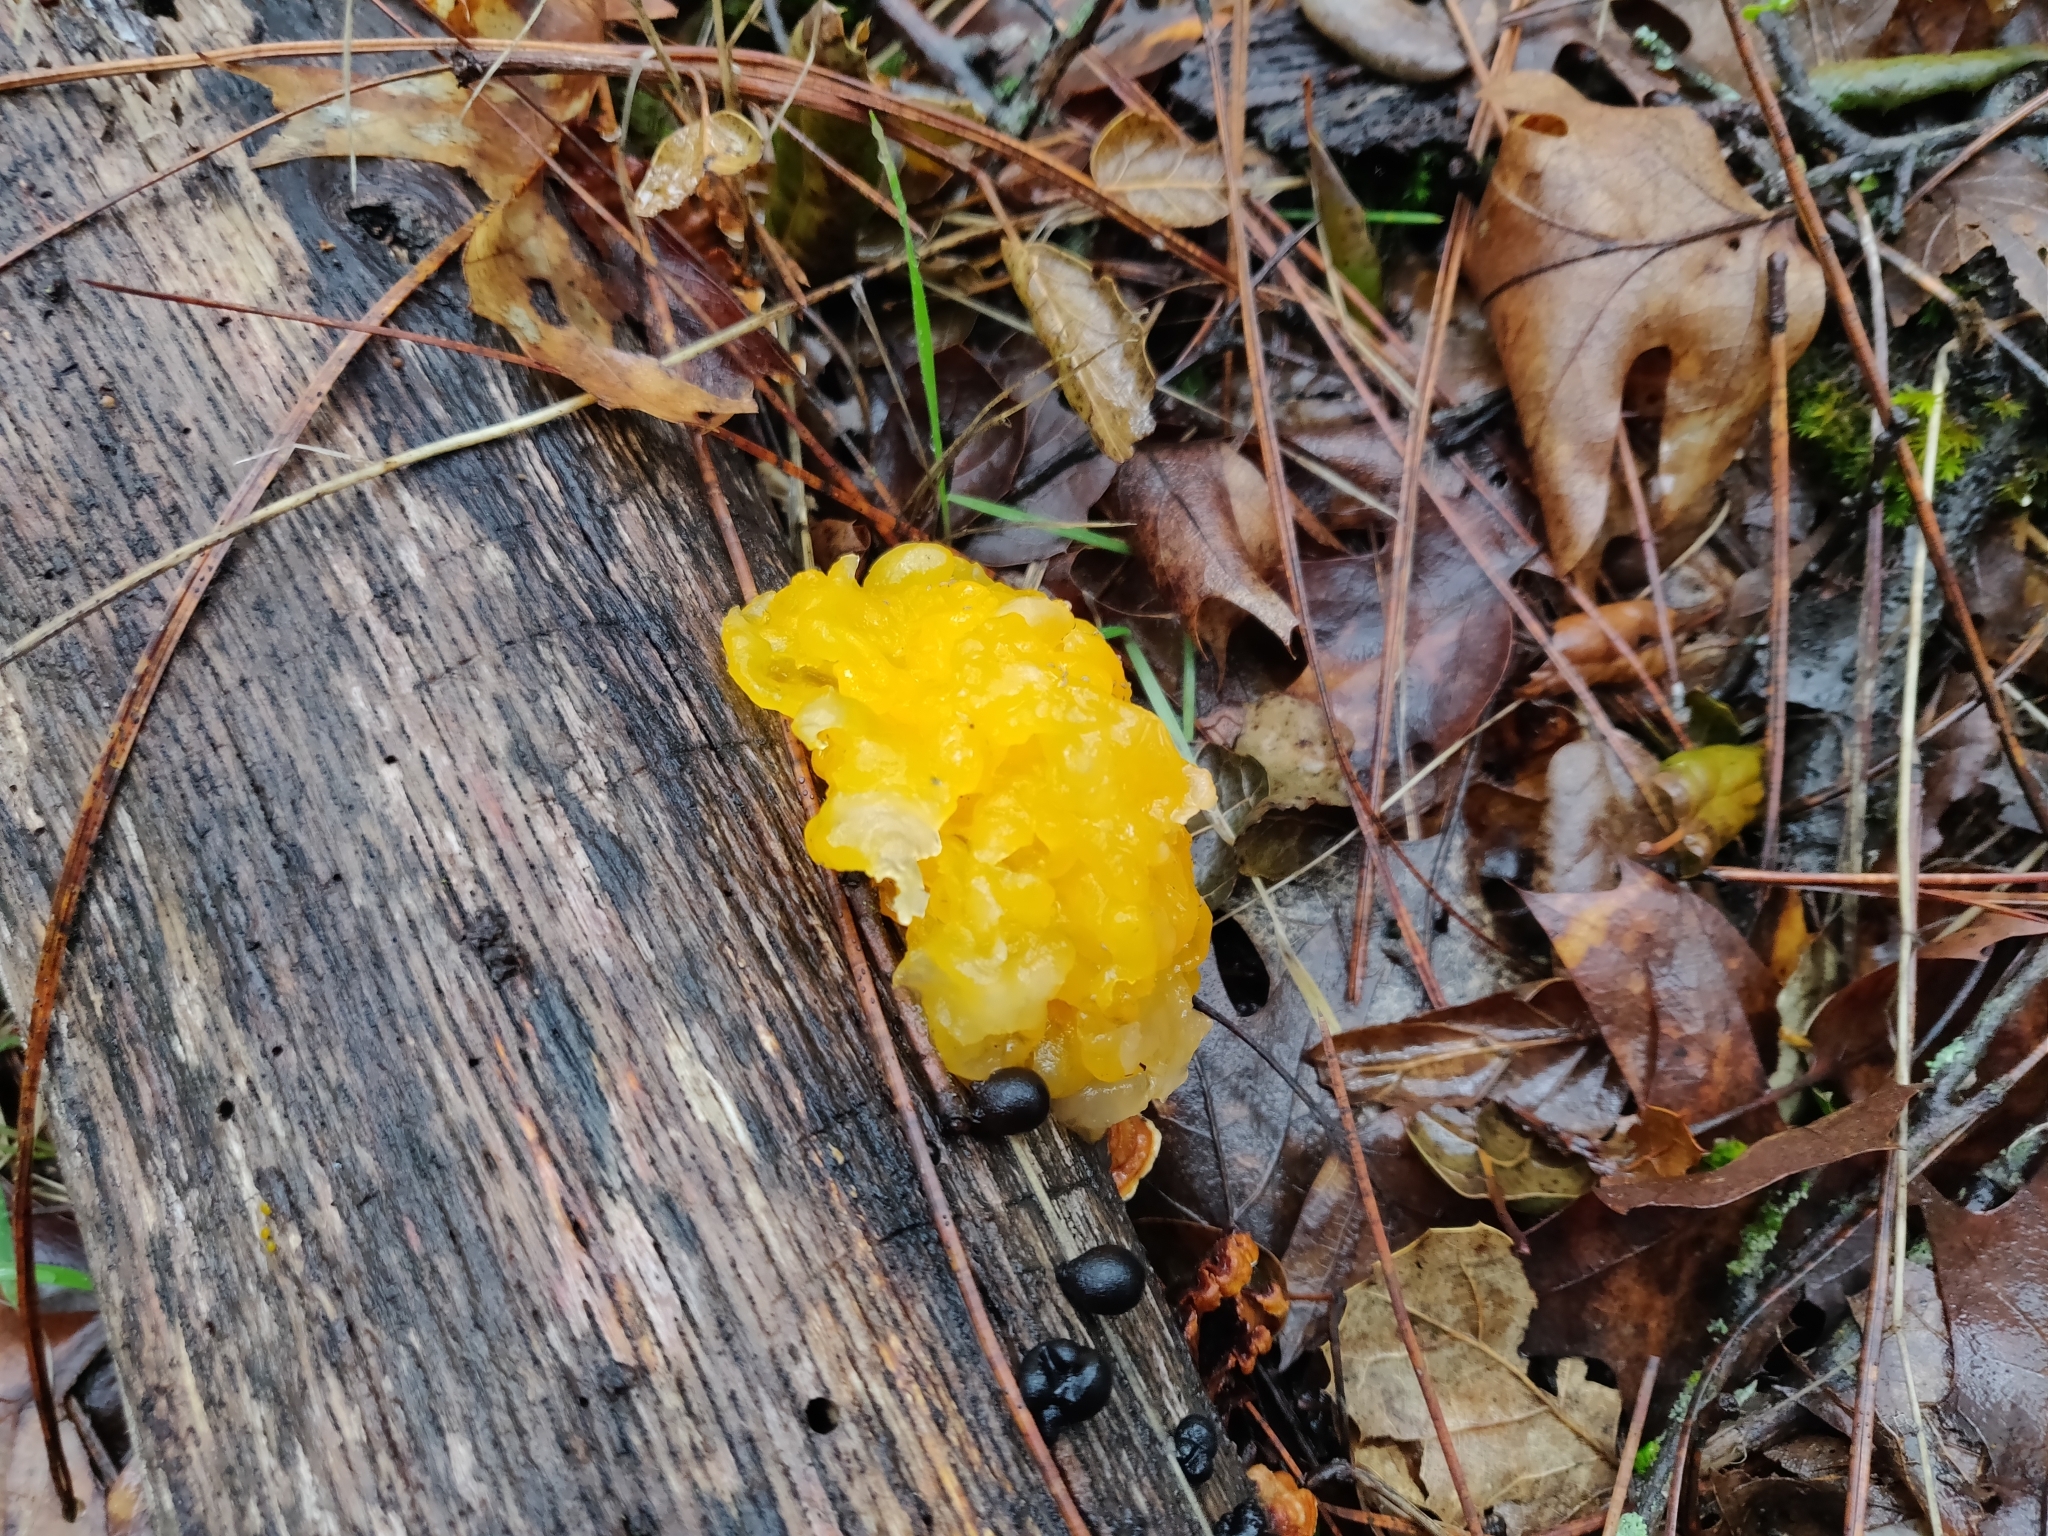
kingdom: Fungi
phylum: Basidiomycota
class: Tremellomycetes
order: Tremellales
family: Naemateliaceae
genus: Naematelia
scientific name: Naematelia aurantia
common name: Golden ear
